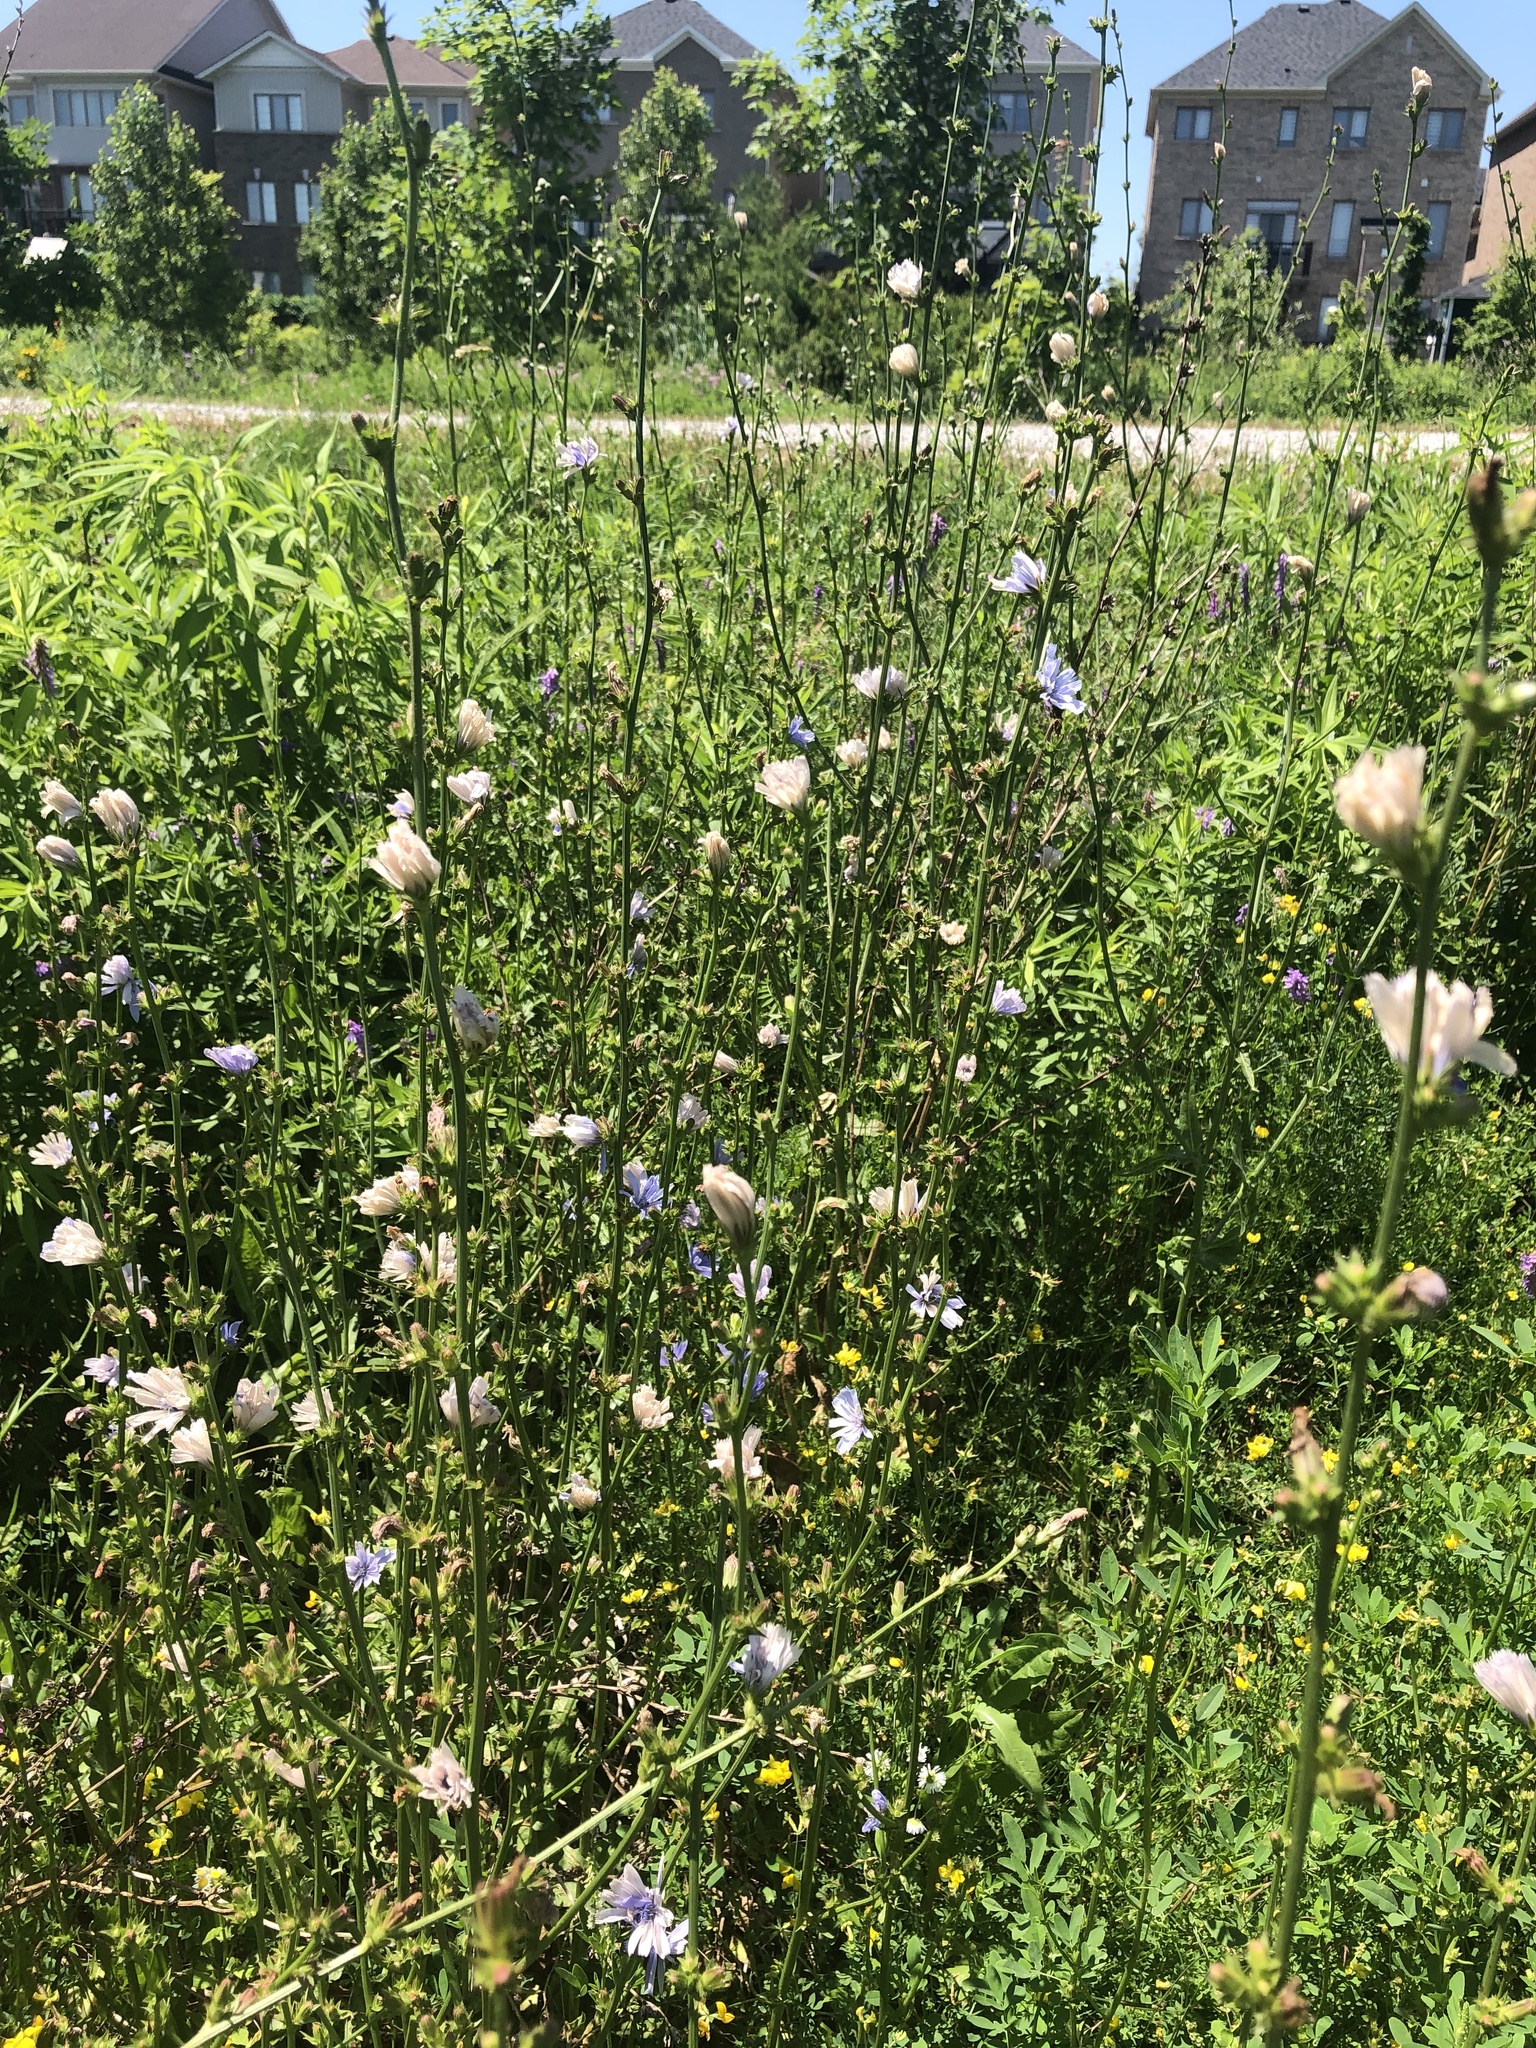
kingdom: Plantae
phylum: Tracheophyta
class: Magnoliopsida
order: Asterales
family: Asteraceae
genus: Cichorium
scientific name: Cichorium intybus
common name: Chicory
